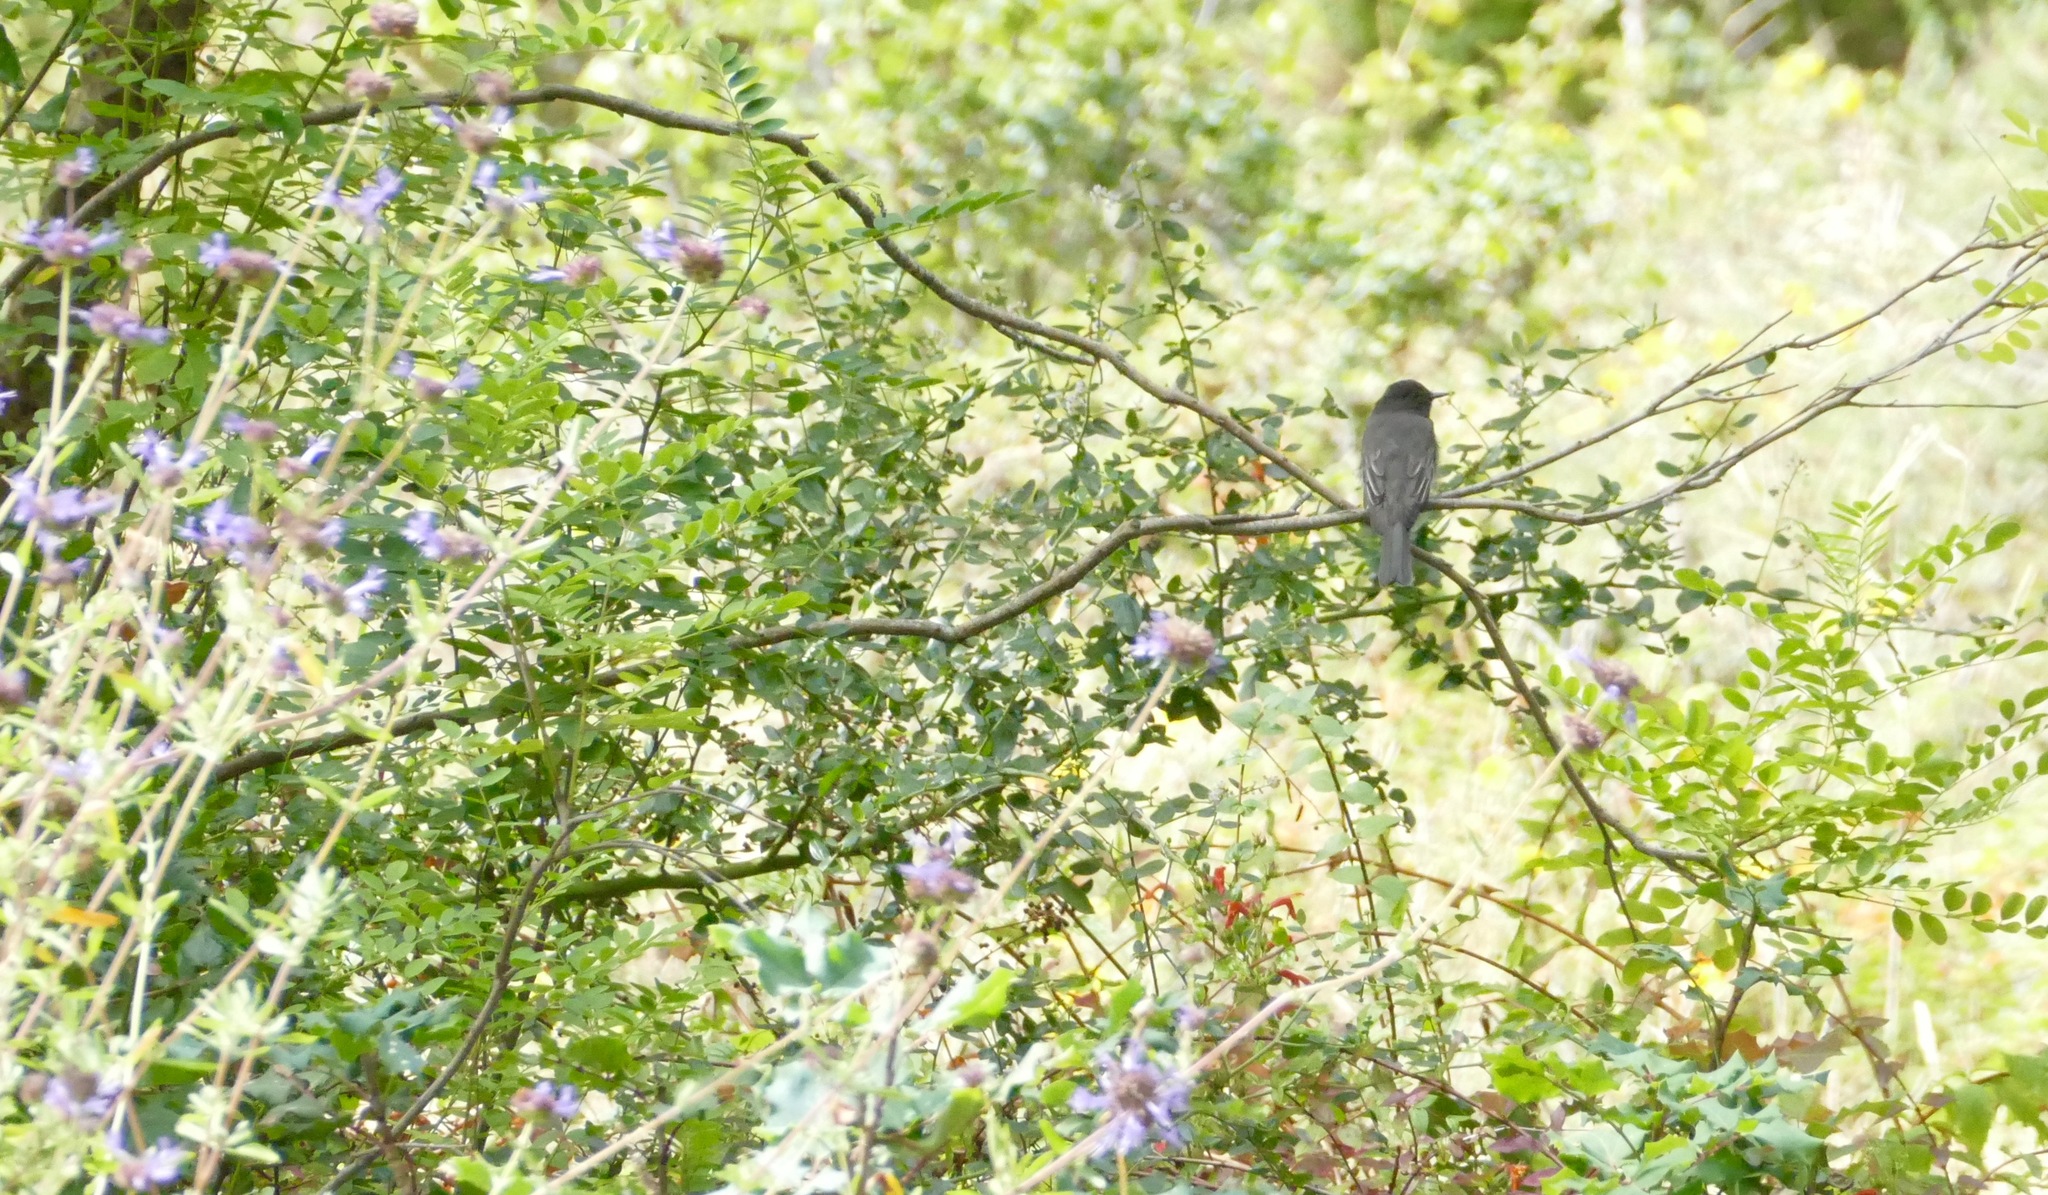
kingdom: Animalia
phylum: Chordata
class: Aves
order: Passeriformes
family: Tyrannidae
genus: Sayornis
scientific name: Sayornis nigricans
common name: Black phoebe
